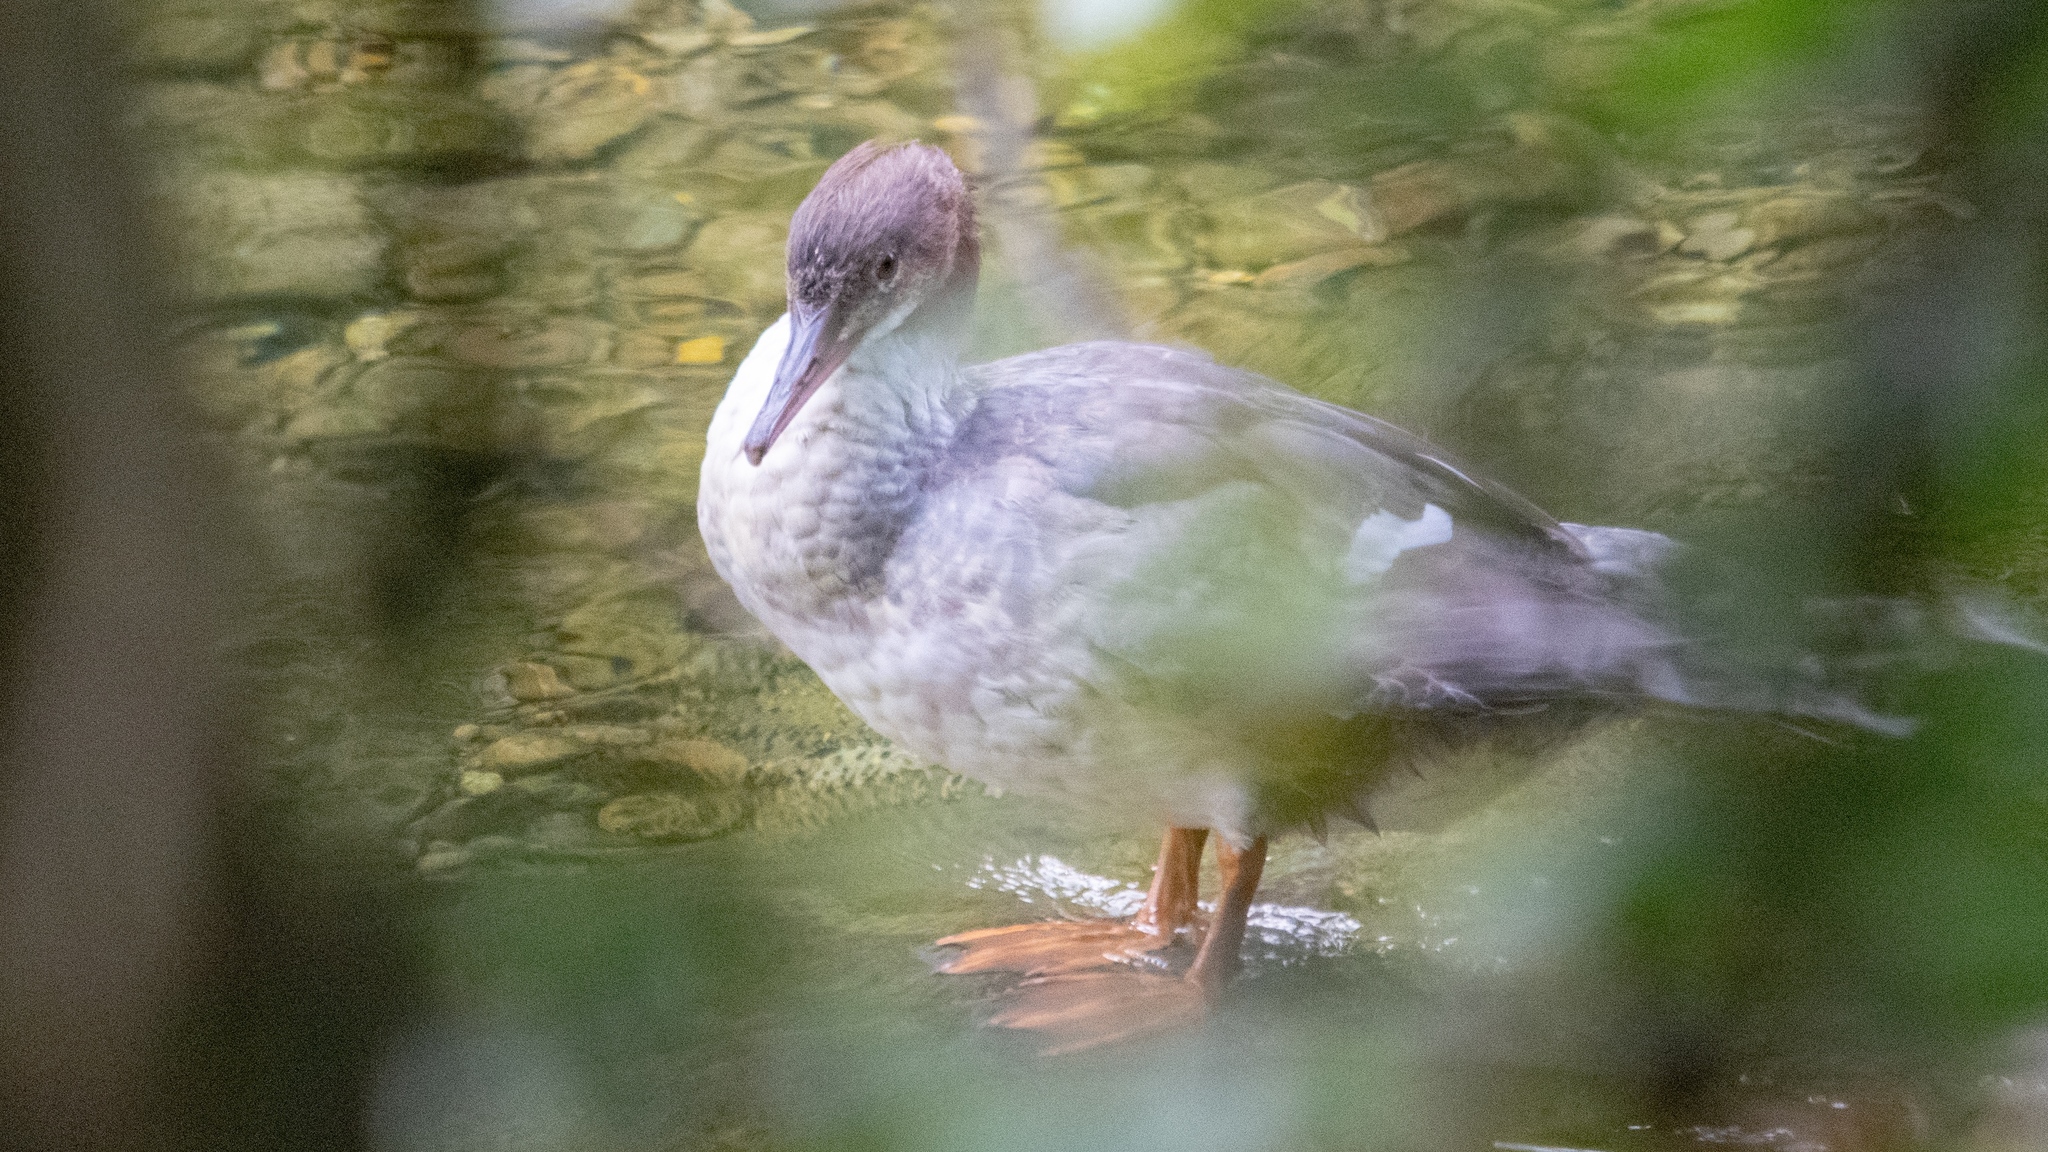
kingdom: Animalia
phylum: Chordata
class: Aves
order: Anseriformes
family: Anatidae
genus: Mergus
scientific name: Mergus merganser
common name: Common merganser
